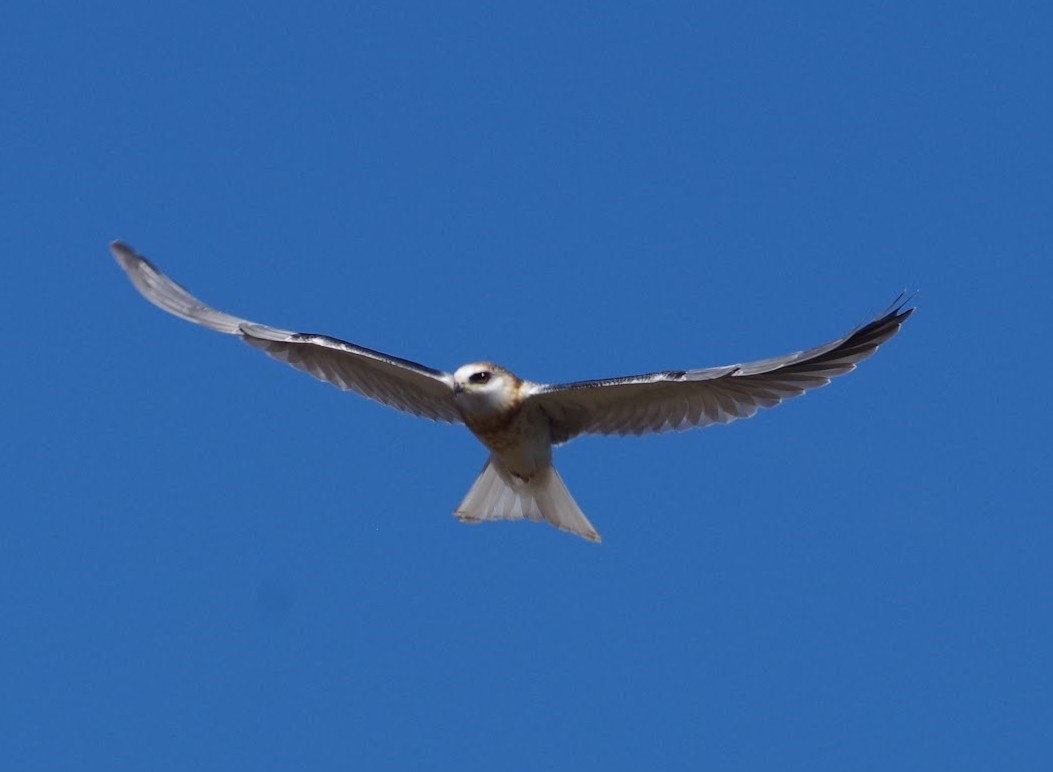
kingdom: Animalia
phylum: Chordata
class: Aves
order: Accipitriformes
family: Accipitridae
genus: Elanus
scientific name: Elanus leucurus
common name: White-tailed kite
